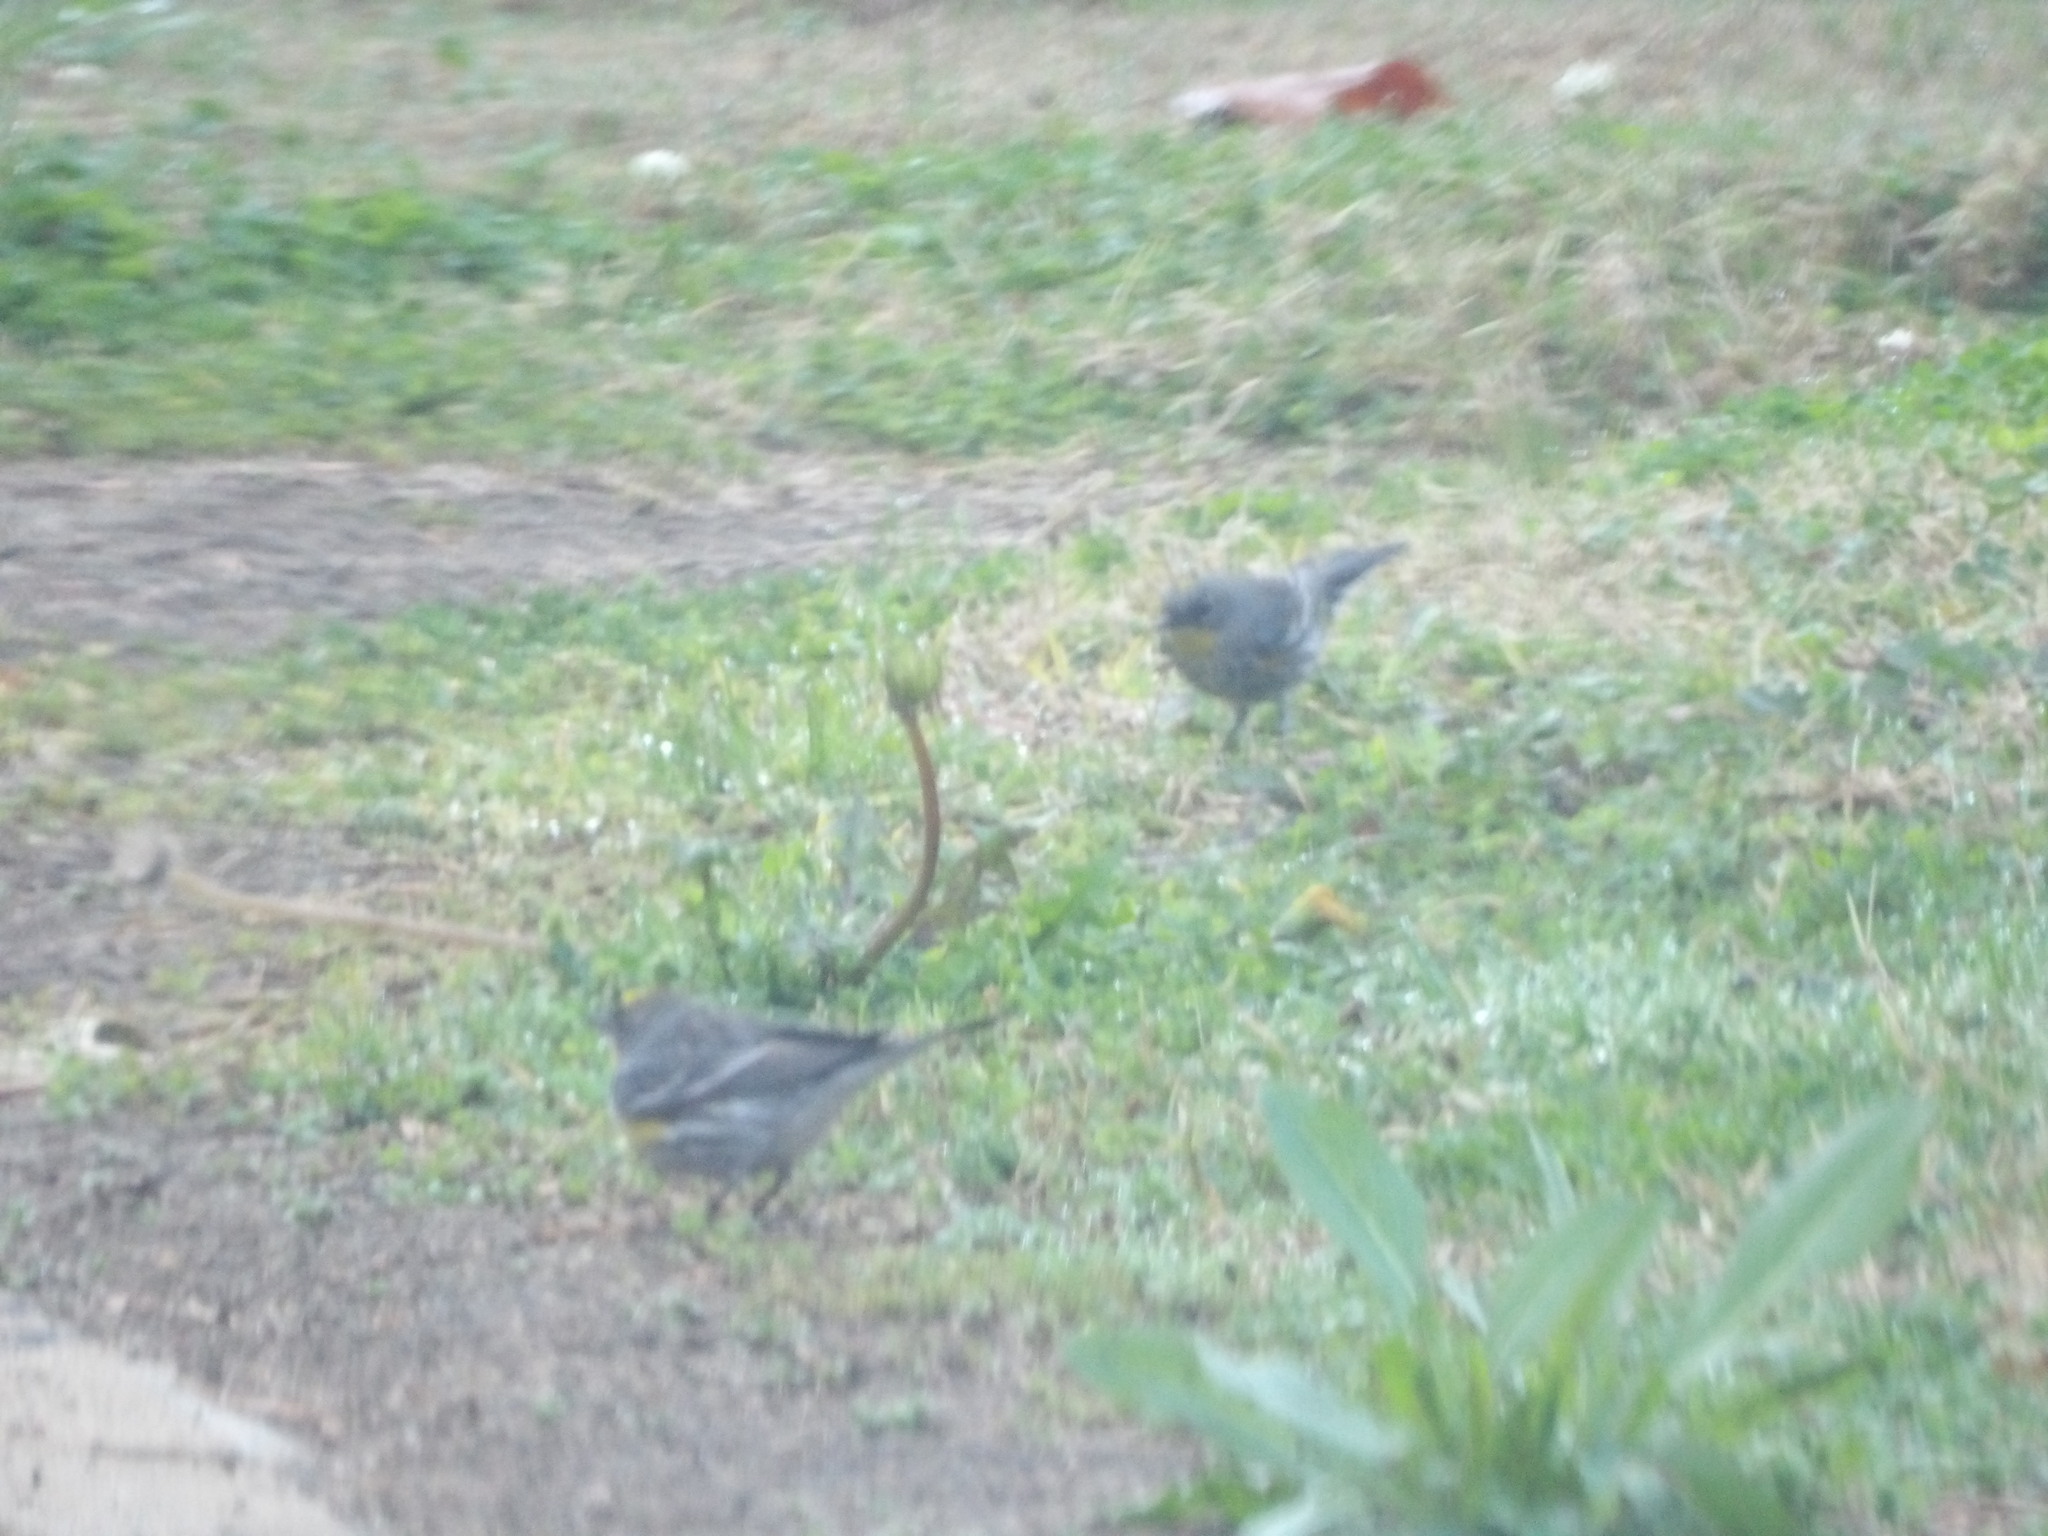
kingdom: Animalia
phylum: Chordata
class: Aves
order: Passeriformes
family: Parulidae
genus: Setophaga
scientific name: Setophaga coronata
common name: Myrtle warbler
